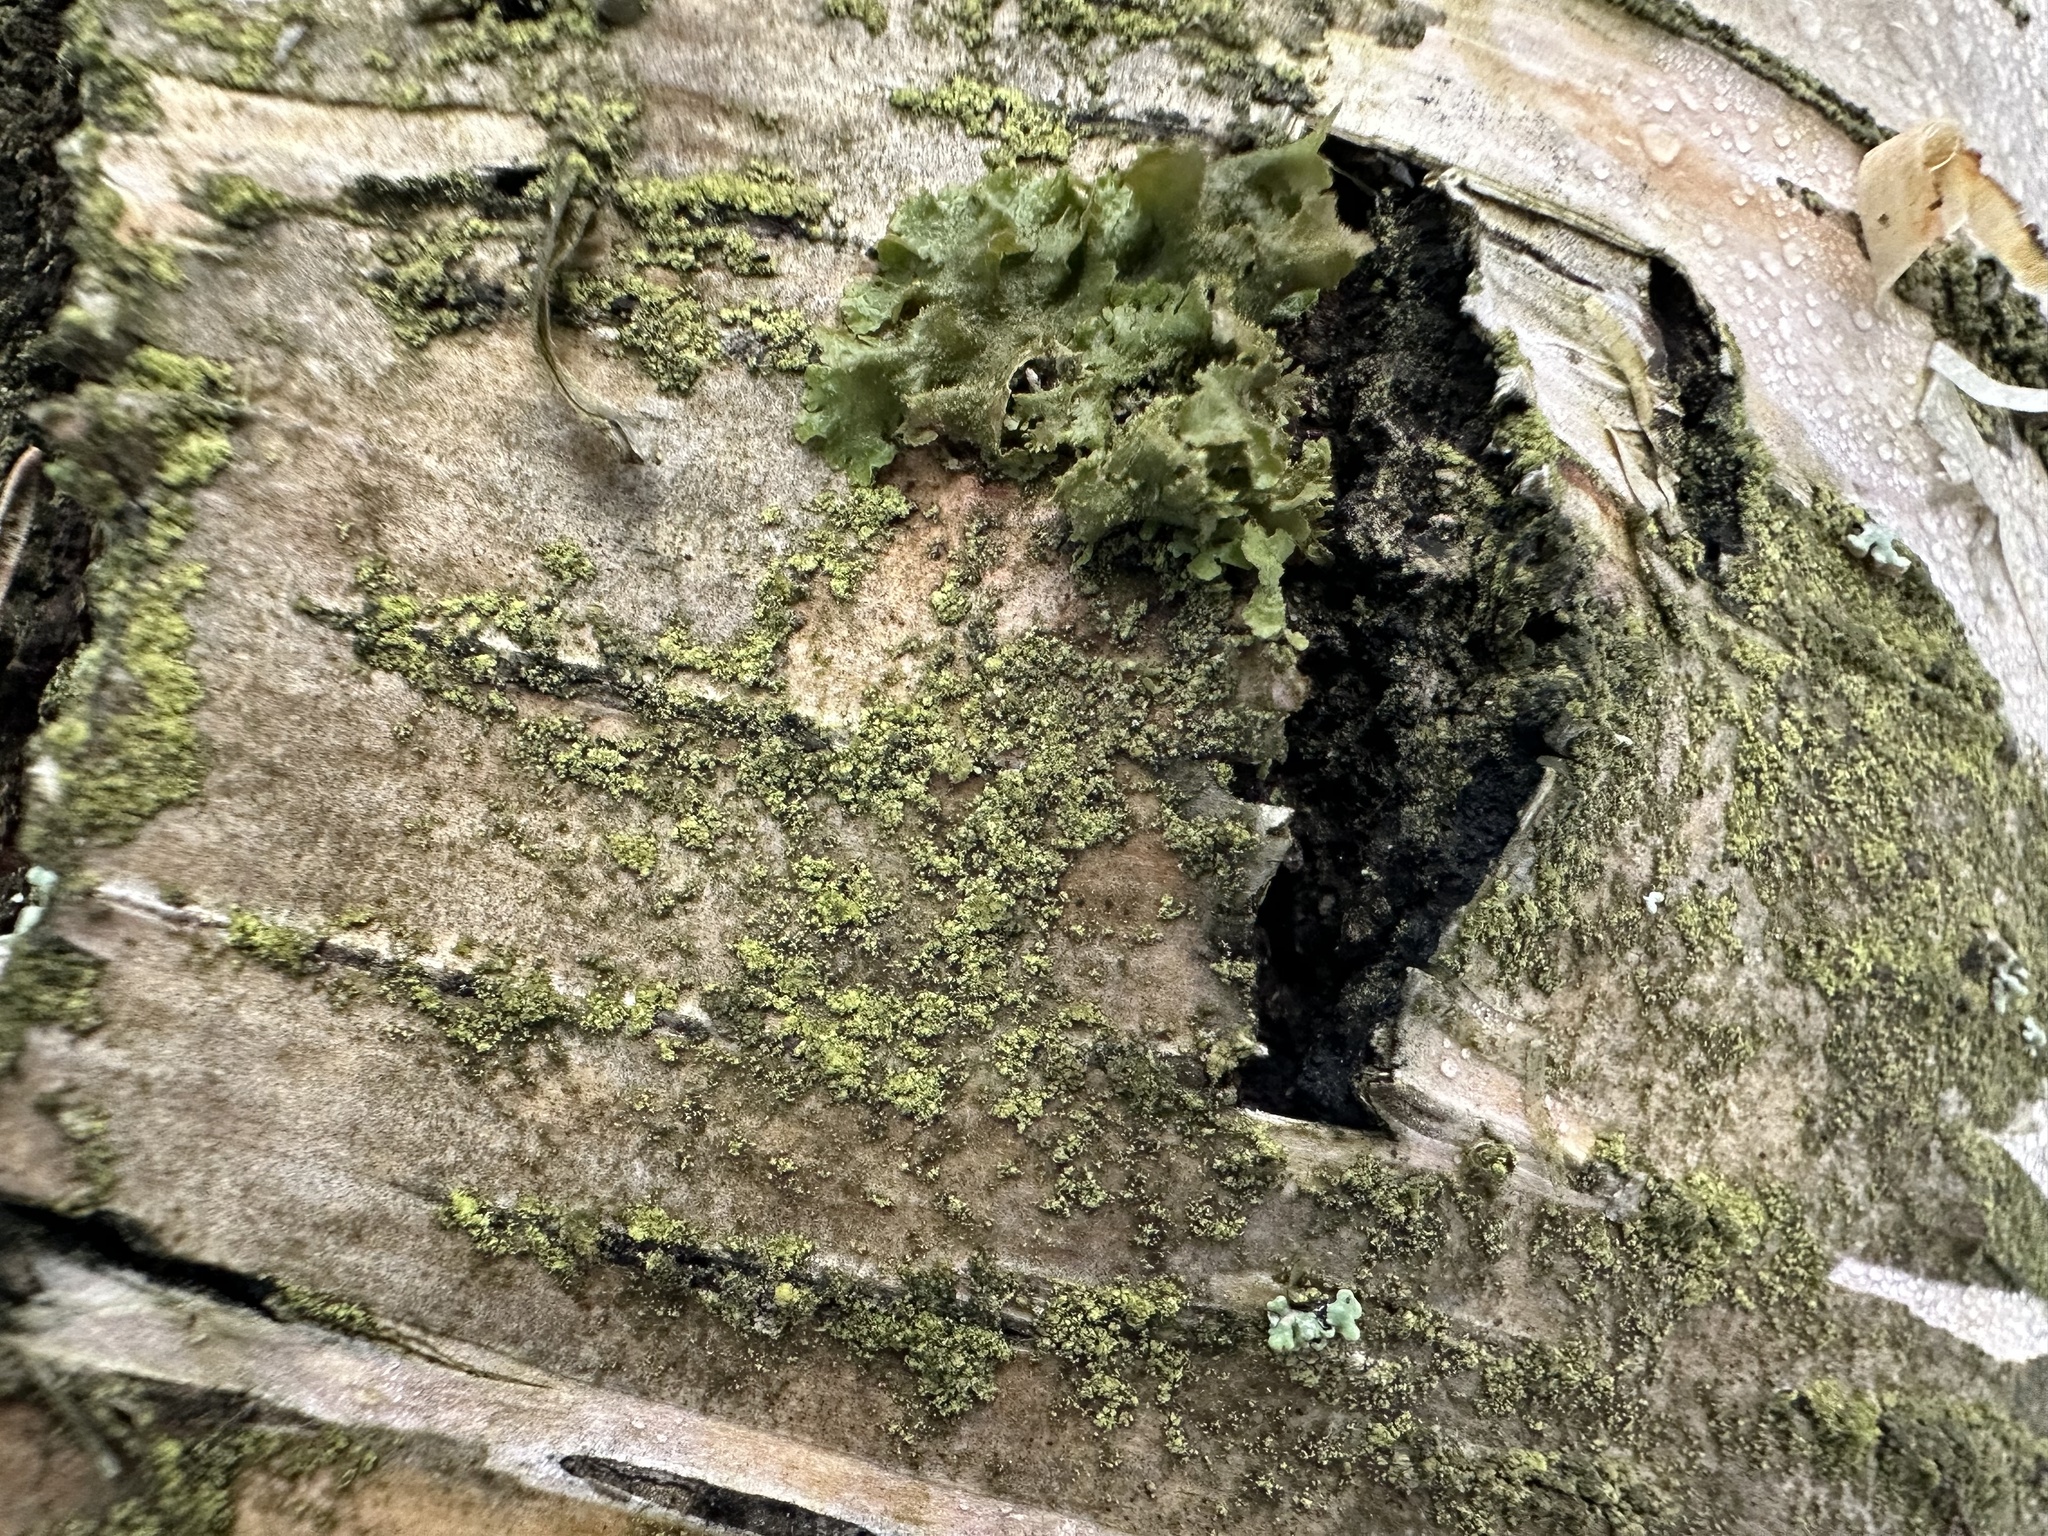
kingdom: Fungi
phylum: Ascomycota
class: Lecanoromycetes
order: Lecanorales
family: Parmeliaceae
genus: Melanohalea
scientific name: Melanohalea exasperatula
